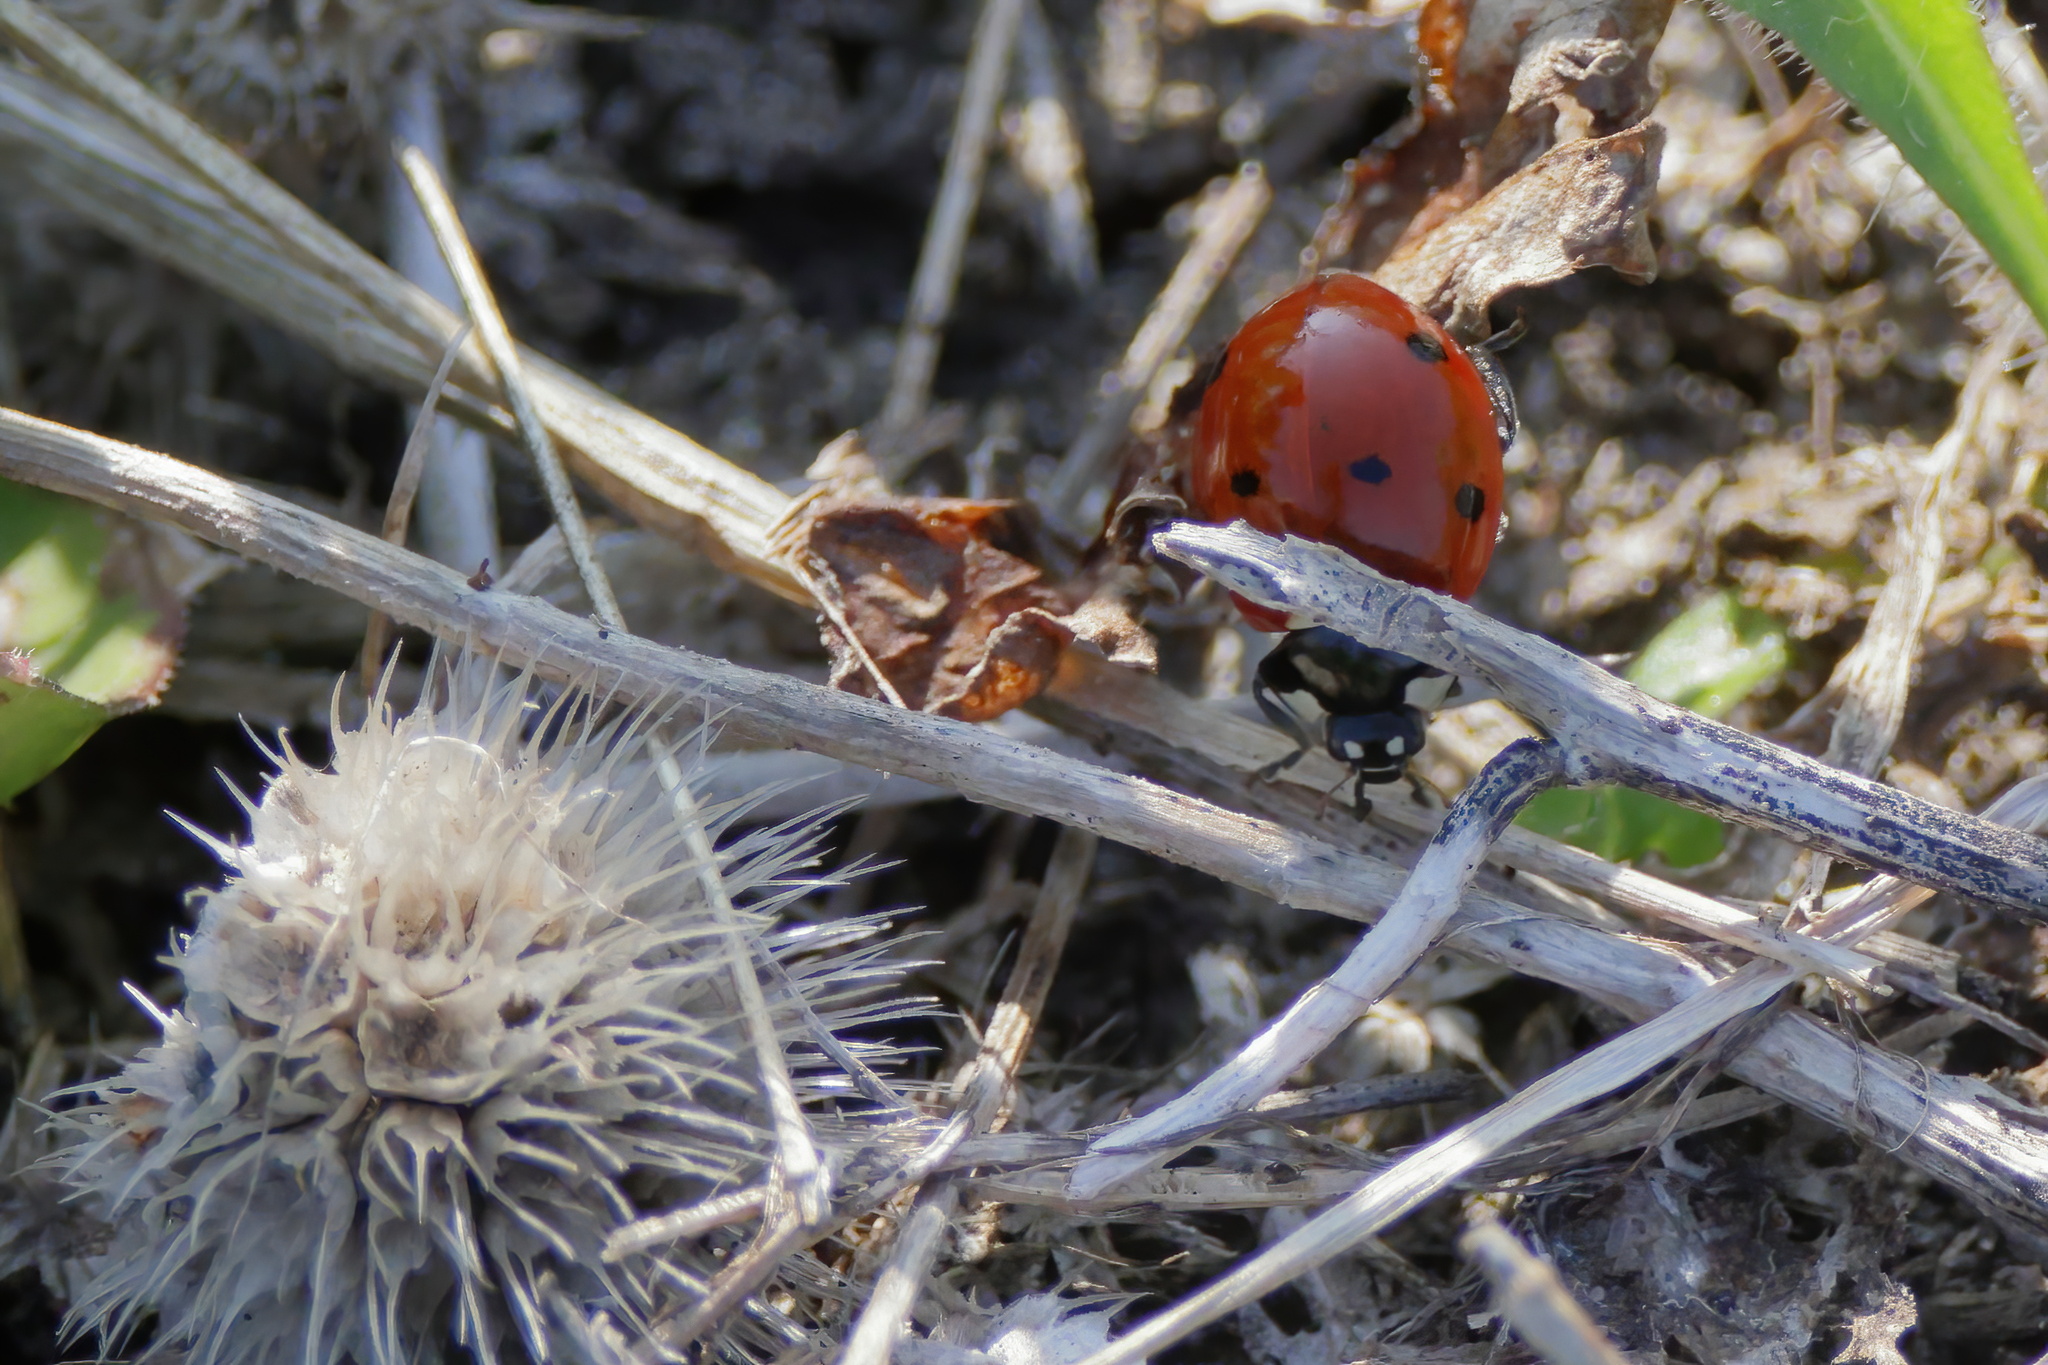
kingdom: Animalia
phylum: Arthropoda
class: Insecta
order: Coleoptera
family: Coccinellidae
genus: Coccinella
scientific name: Coccinella septempunctata
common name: Sevenspotted lady beetle
